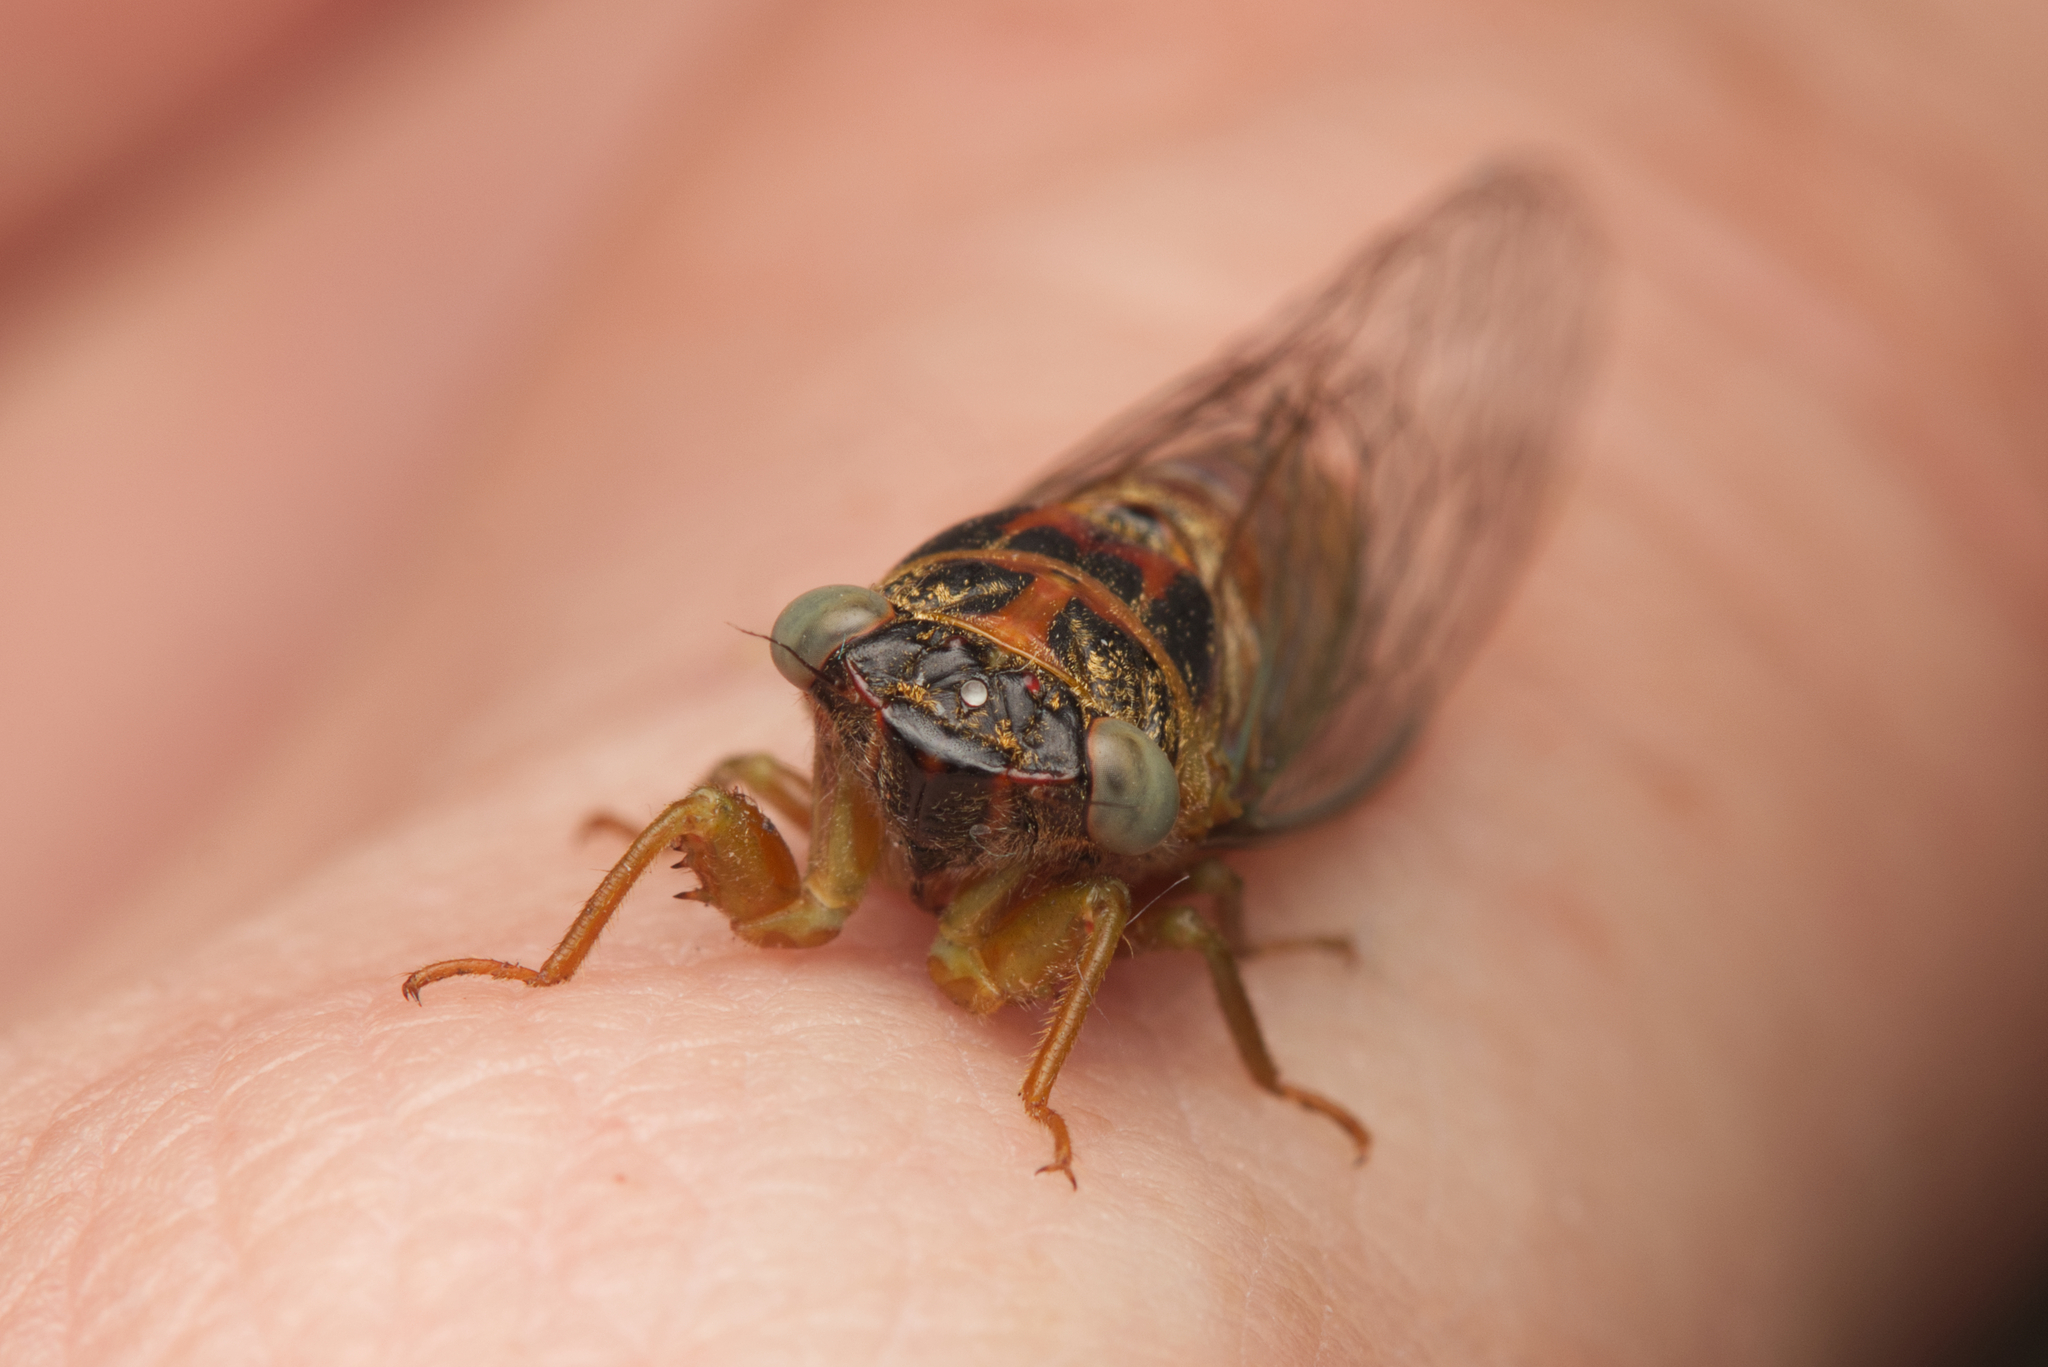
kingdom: Animalia
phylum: Arthropoda
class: Insecta
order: Hemiptera
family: Cicadidae
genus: Palapsalta
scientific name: Palapsalta eyrei
